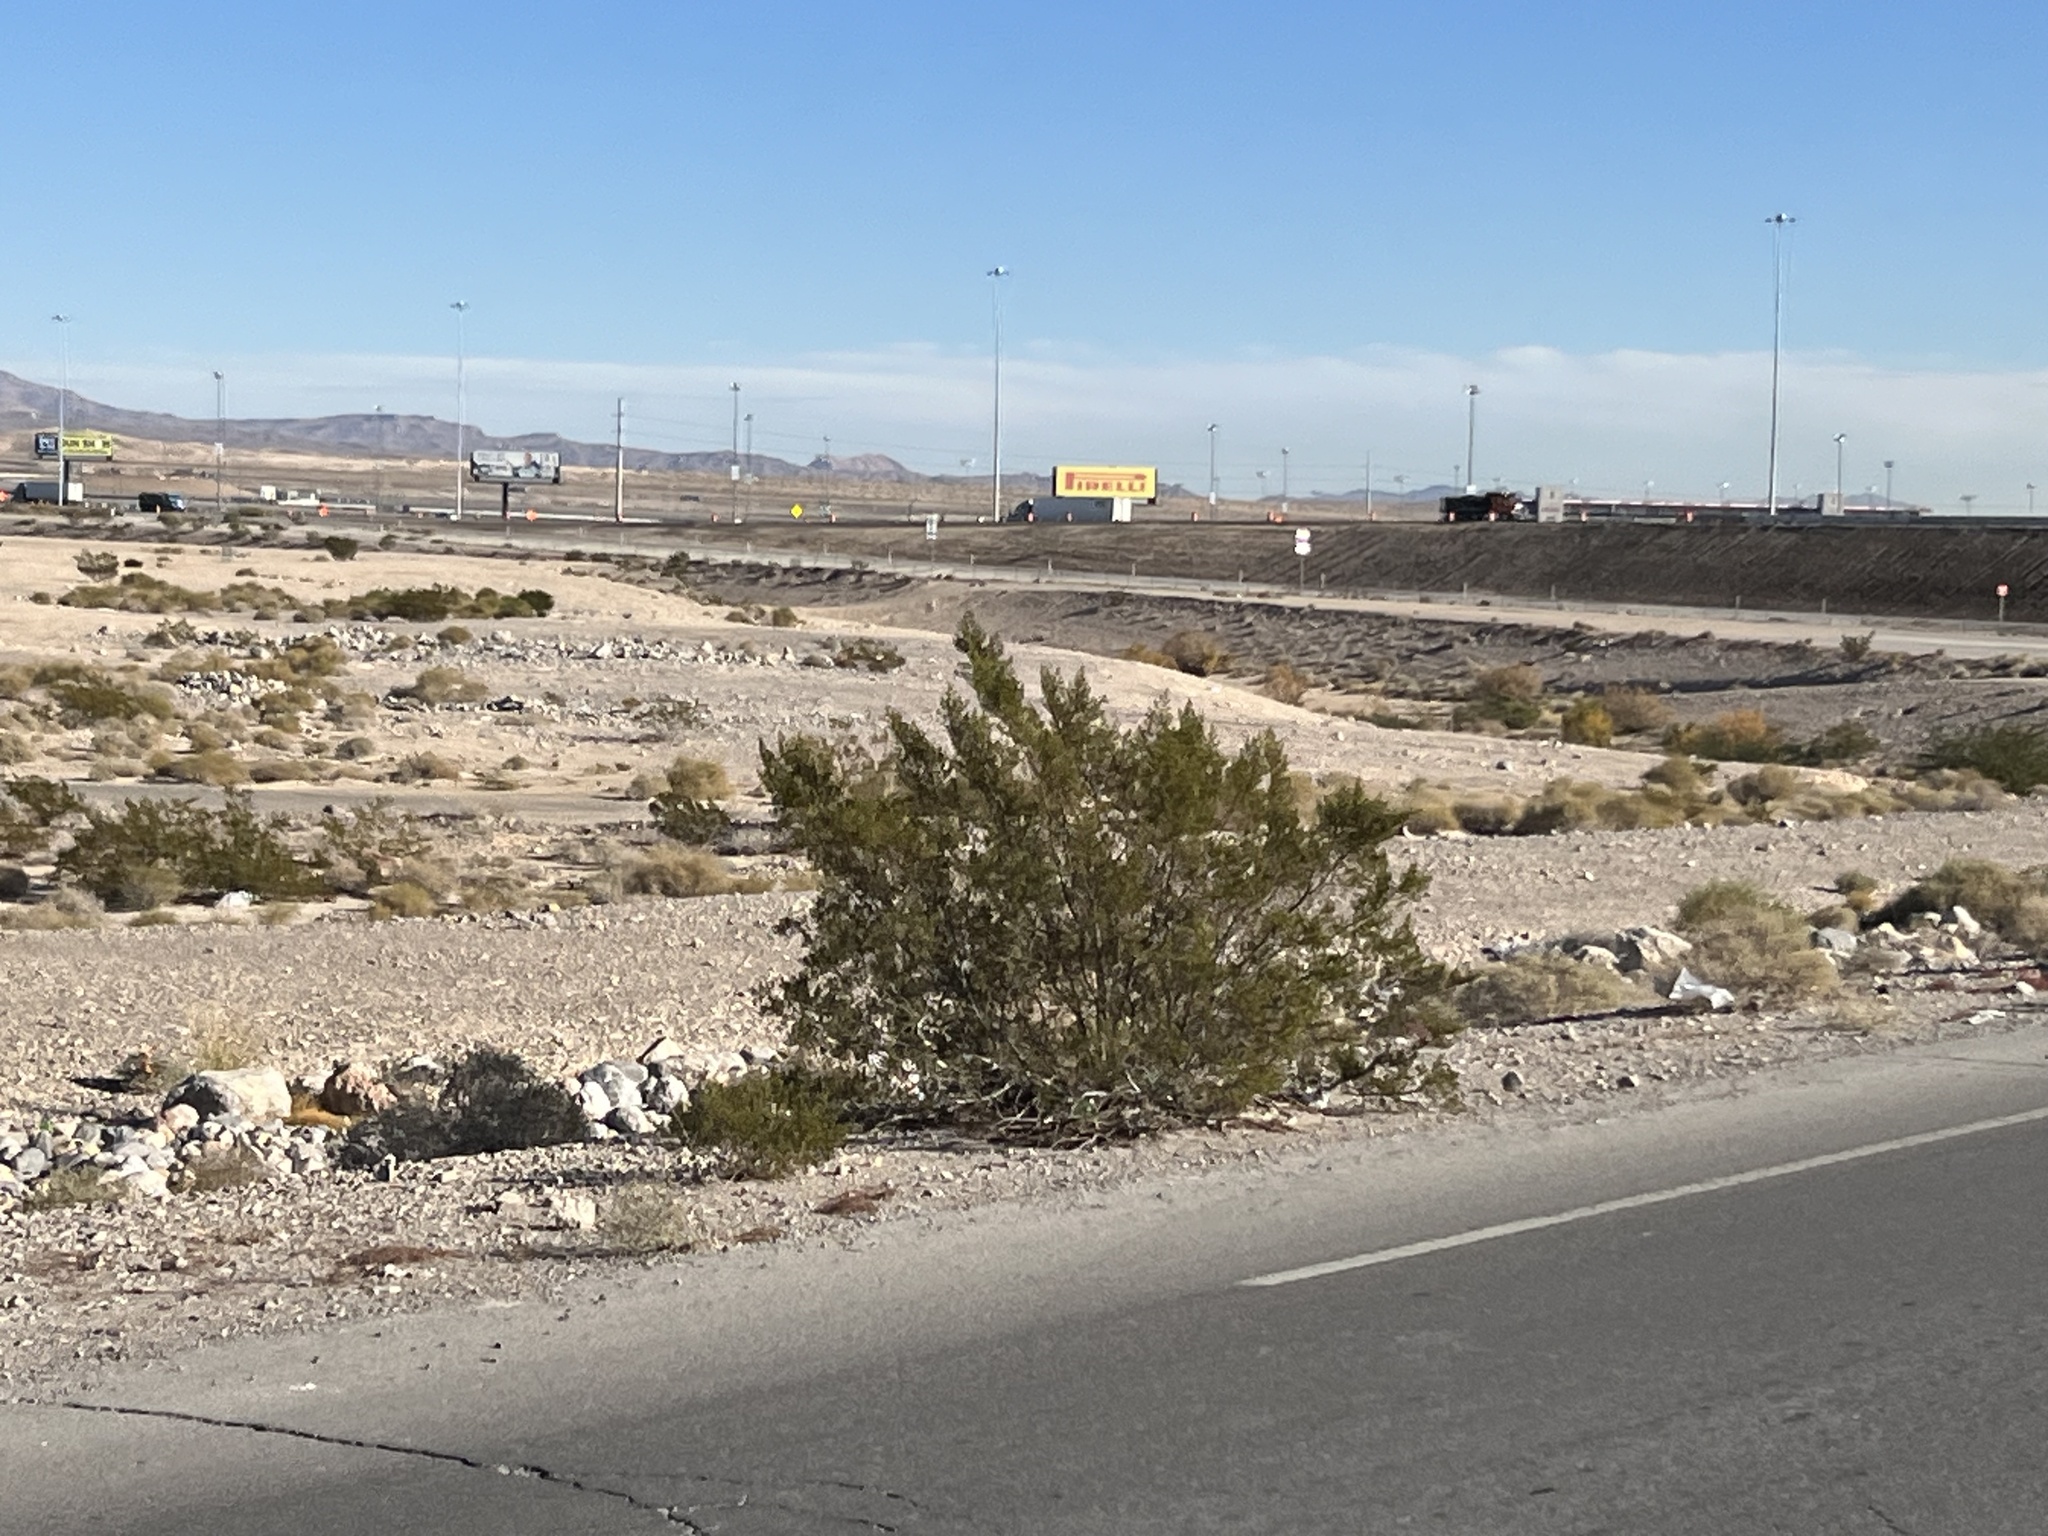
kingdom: Plantae
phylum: Tracheophyta
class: Magnoliopsida
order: Zygophyllales
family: Zygophyllaceae
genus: Larrea
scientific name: Larrea tridentata
